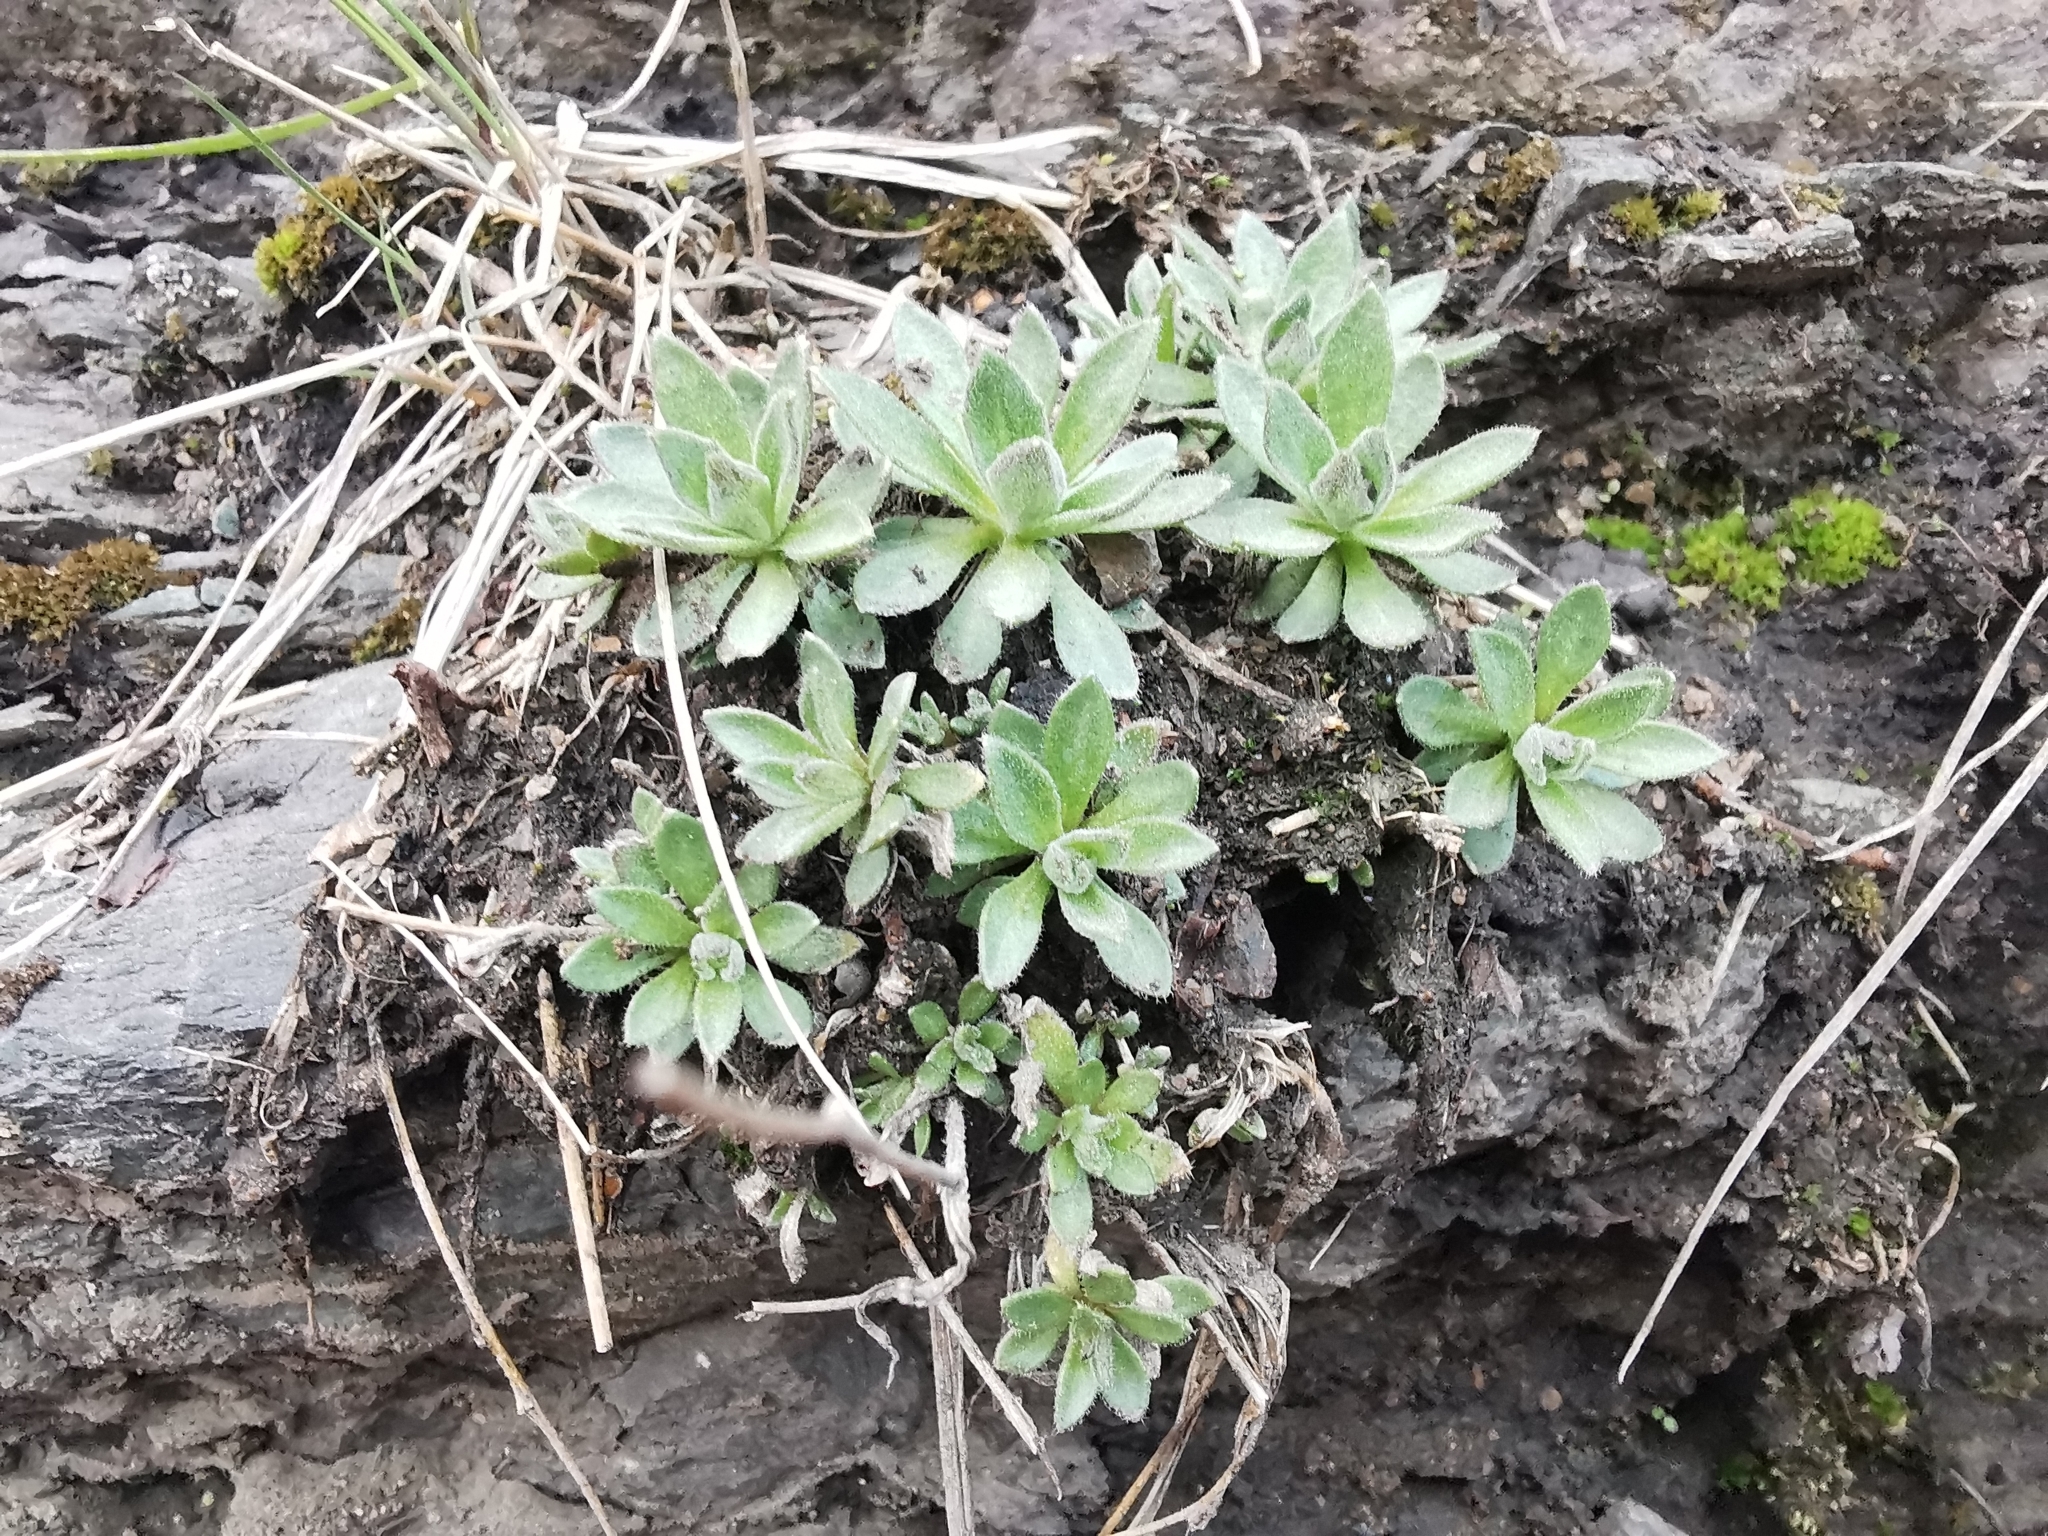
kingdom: Plantae
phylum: Tracheophyta
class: Magnoliopsida
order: Brassicales
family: Brassicaceae
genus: Draba
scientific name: Draba borealis
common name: Boreal draba
